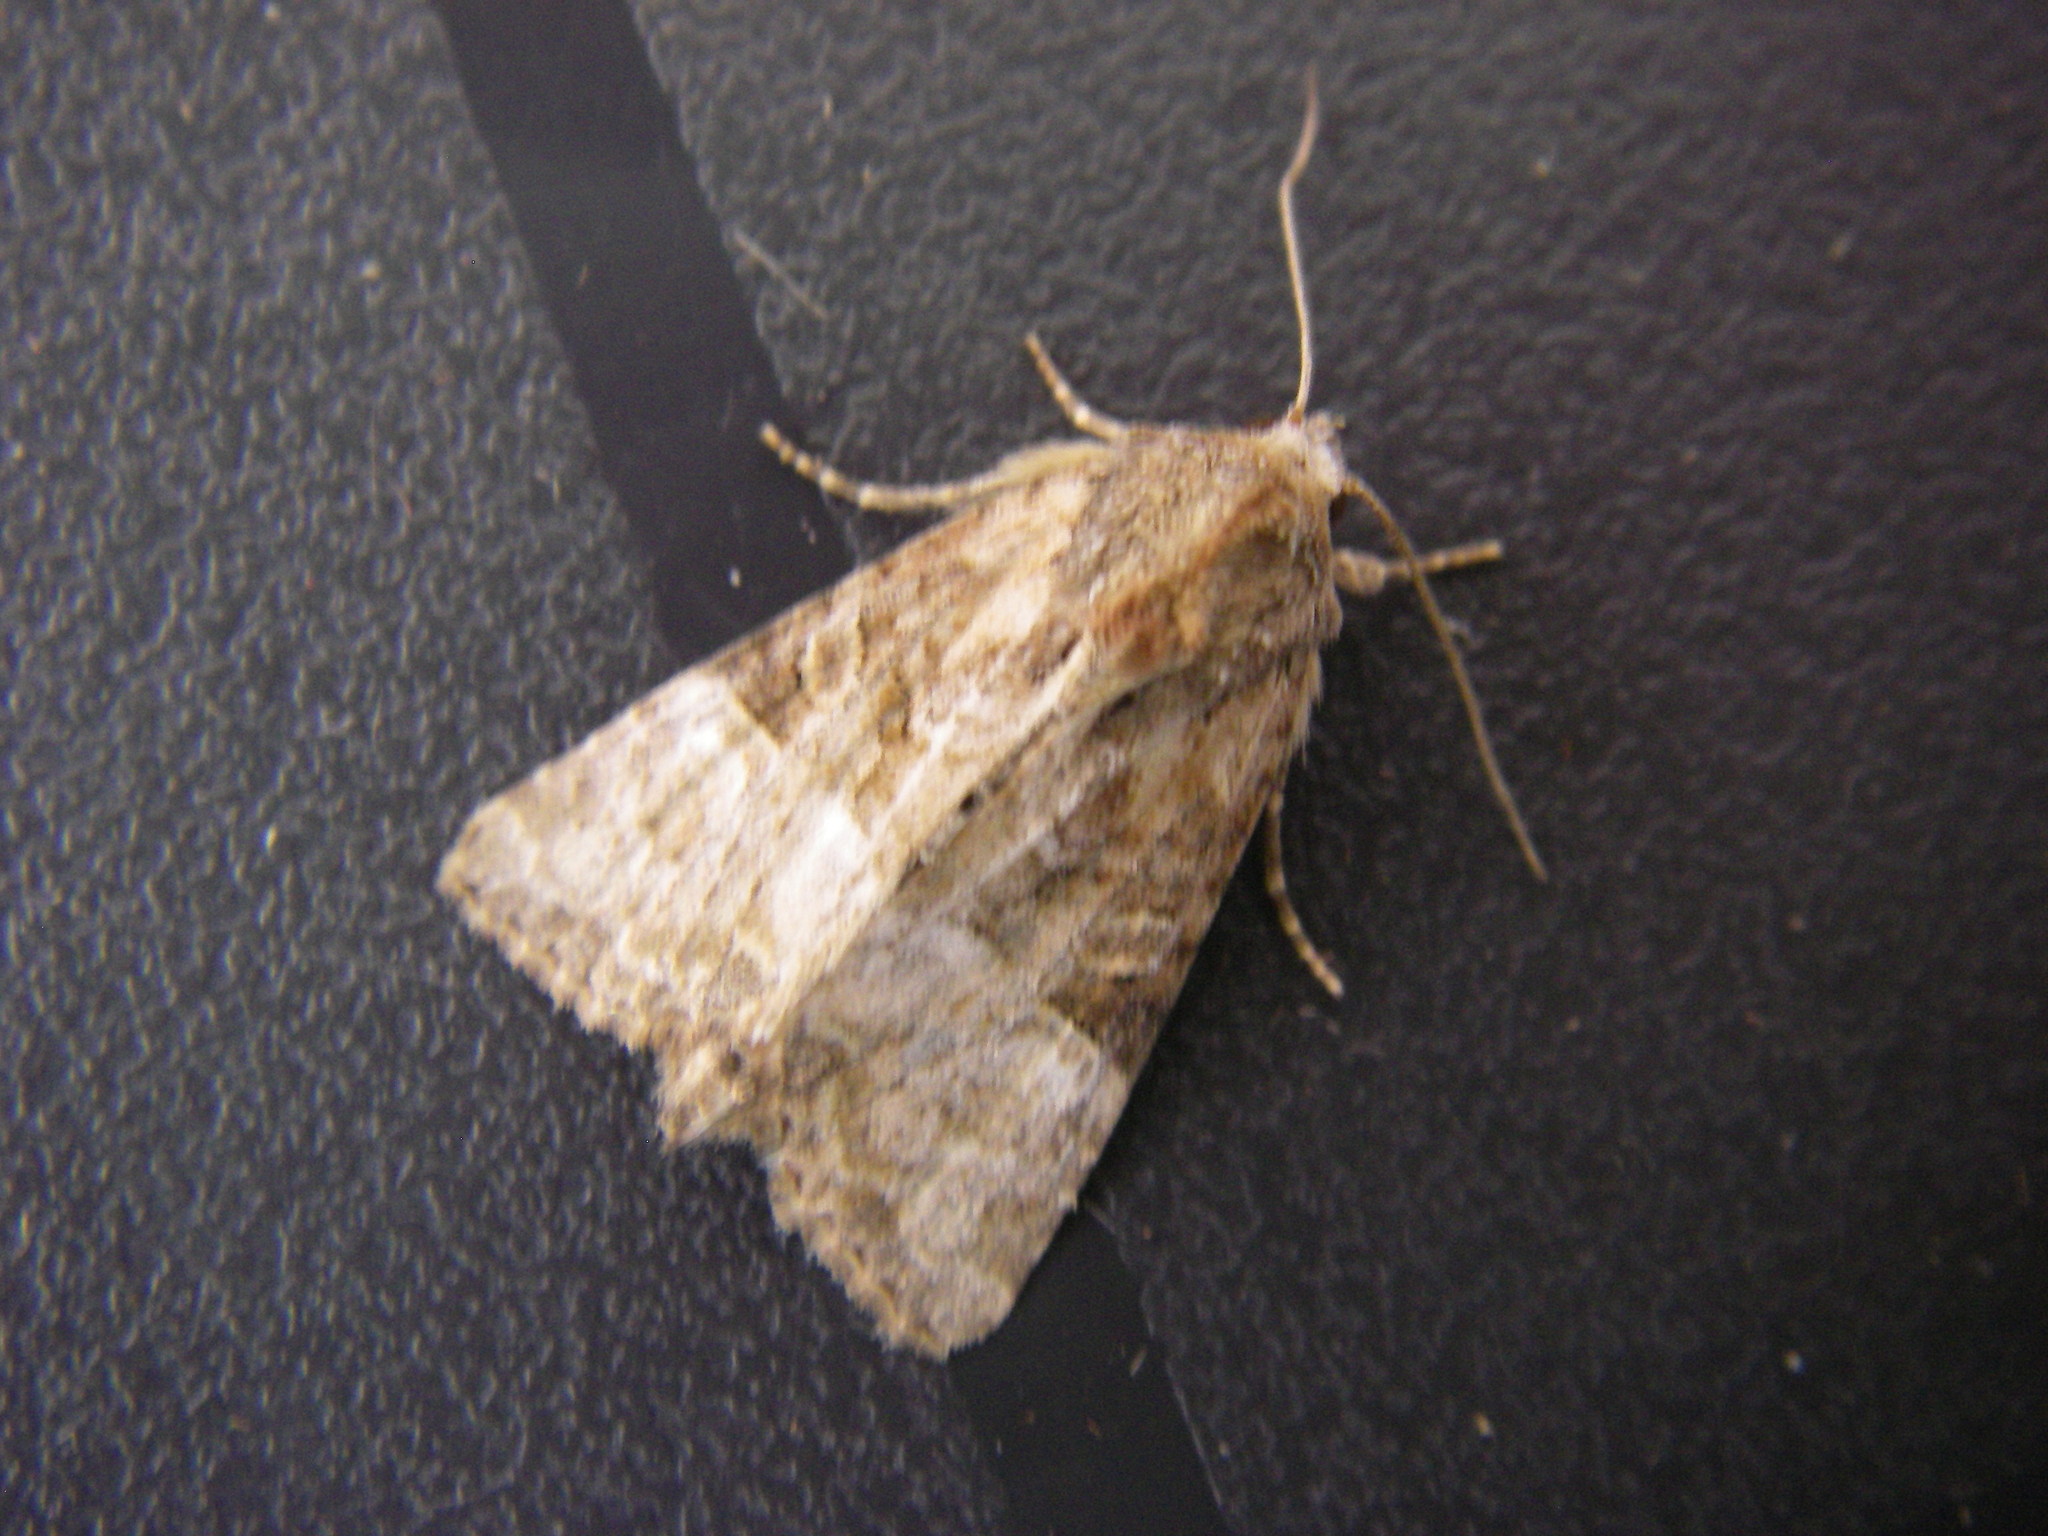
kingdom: Animalia
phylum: Arthropoda
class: Insecta
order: Lepidoptera
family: Noctuidae
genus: Mesoligia
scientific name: Mesoligia furuncula
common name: Cloaked minor
